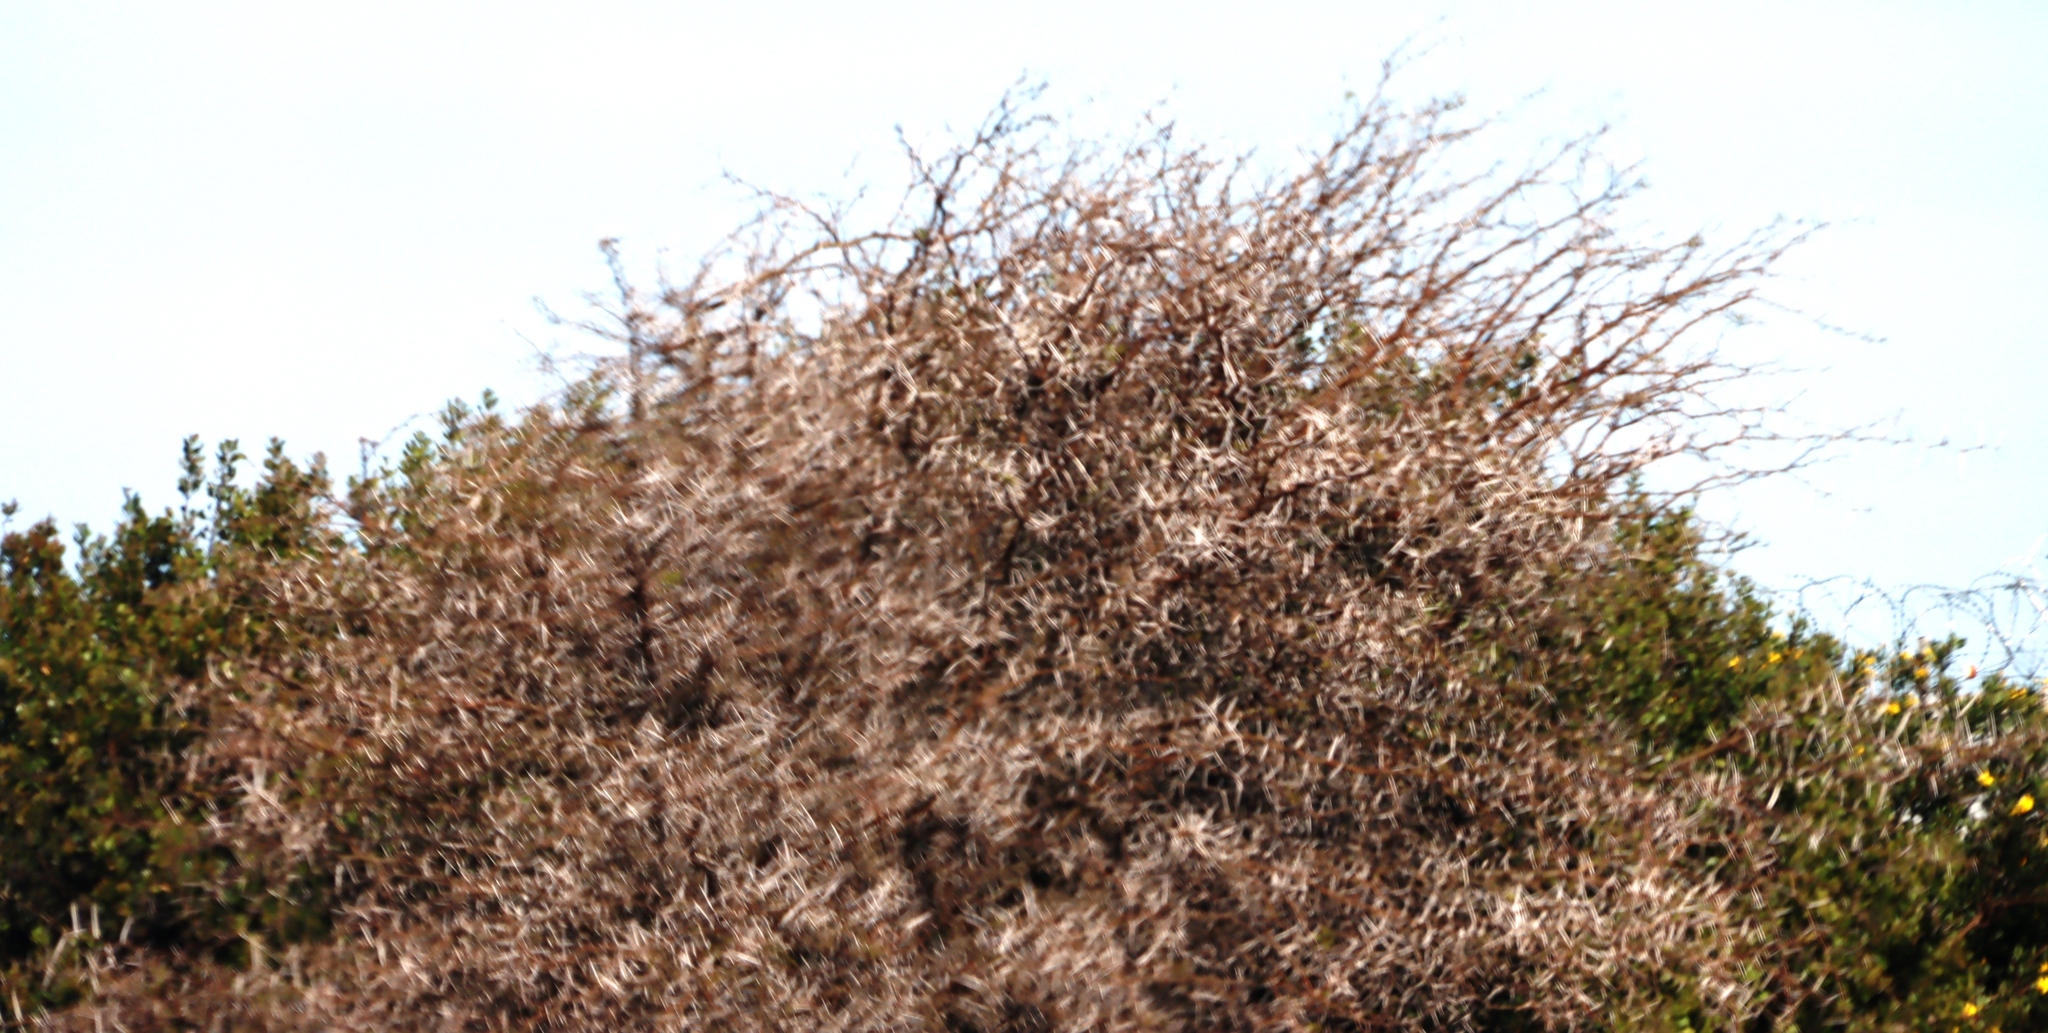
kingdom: Plantae
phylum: Tracheophyta
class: Magnoliopsida
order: Fabales
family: Fabaceae
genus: Vachellia
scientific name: Vachellia karroo
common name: Sweet thorn
